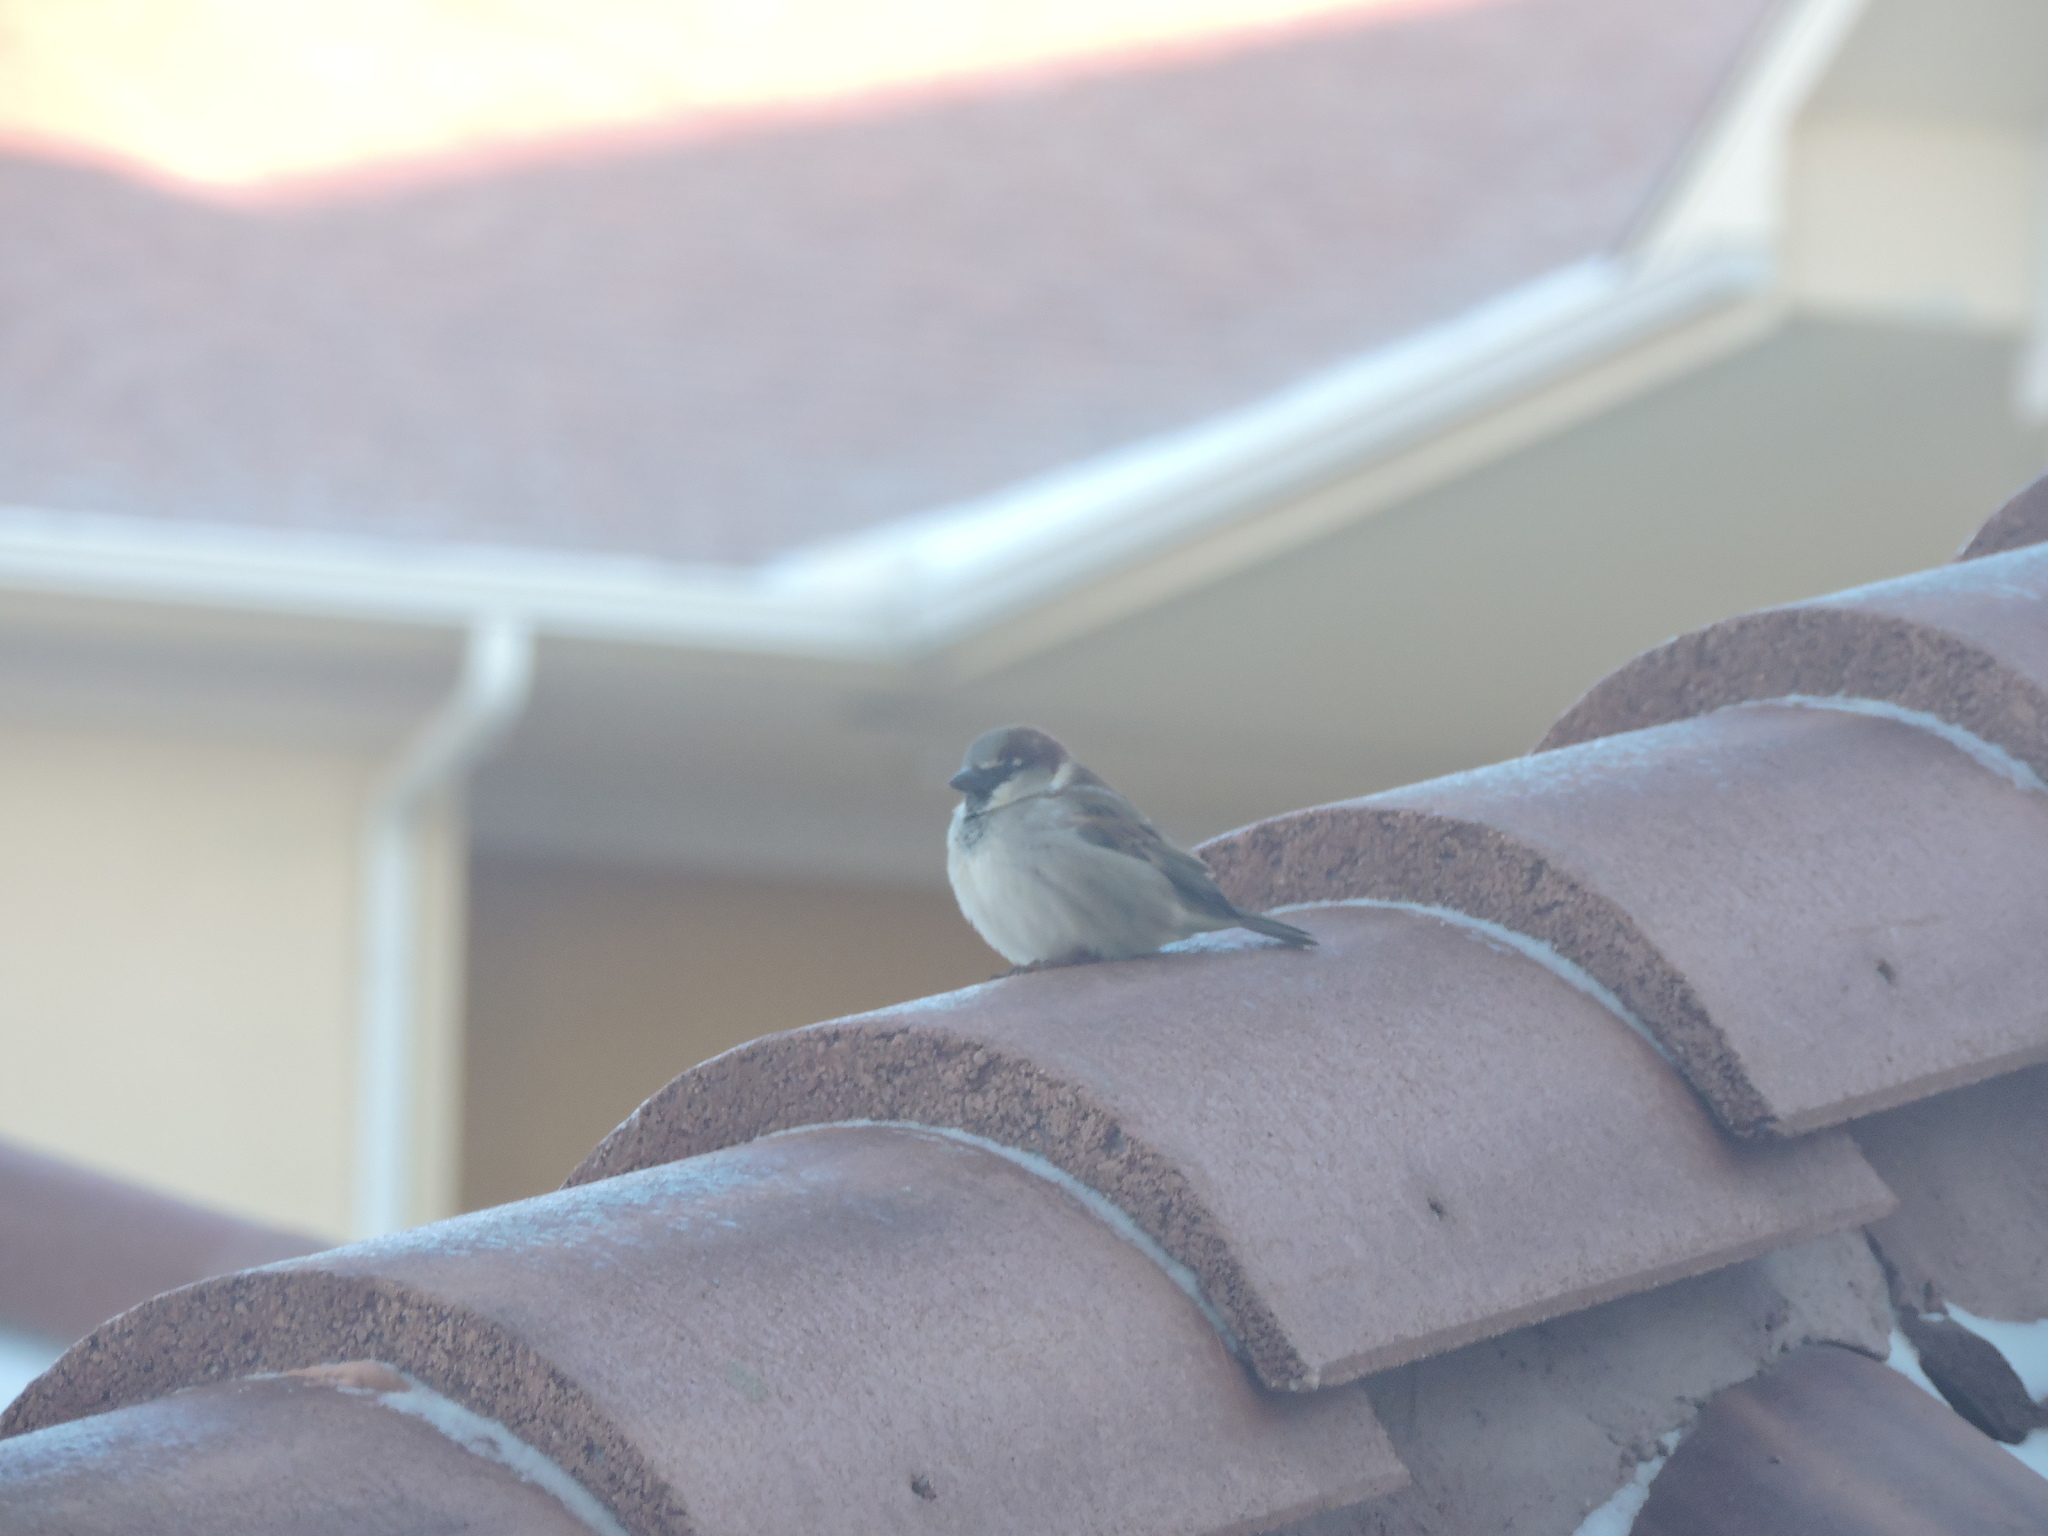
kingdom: Animalia
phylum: Chordata
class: Aves
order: Passeriformes
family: Passeridae
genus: Passer
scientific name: Passer domesticus
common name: House sparrow
